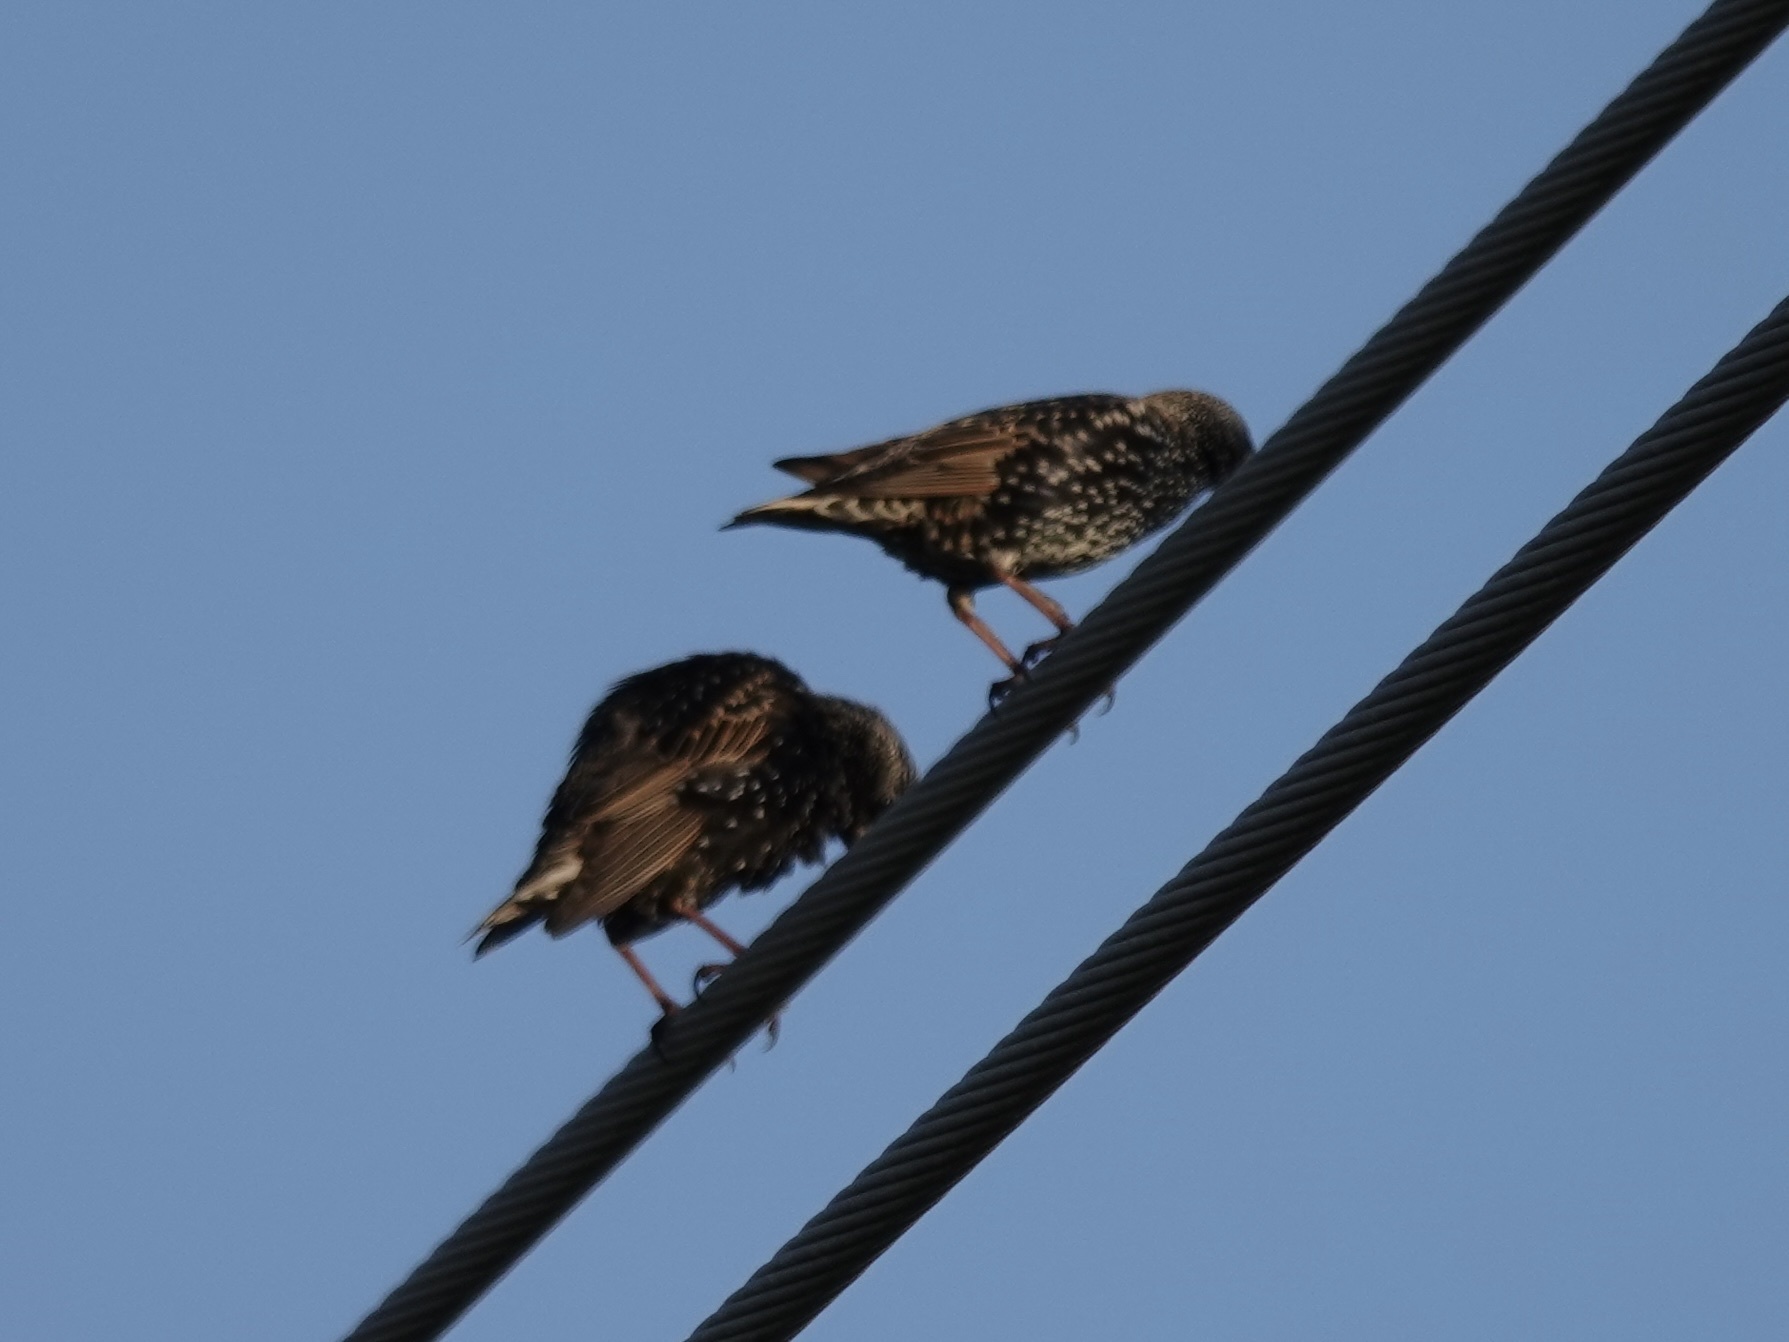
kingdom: Animalia
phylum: Chordata
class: Aves
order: Passeriformes
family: Sturnidae
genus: Sturnus
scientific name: Sturnus vulgaris
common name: Common starling
